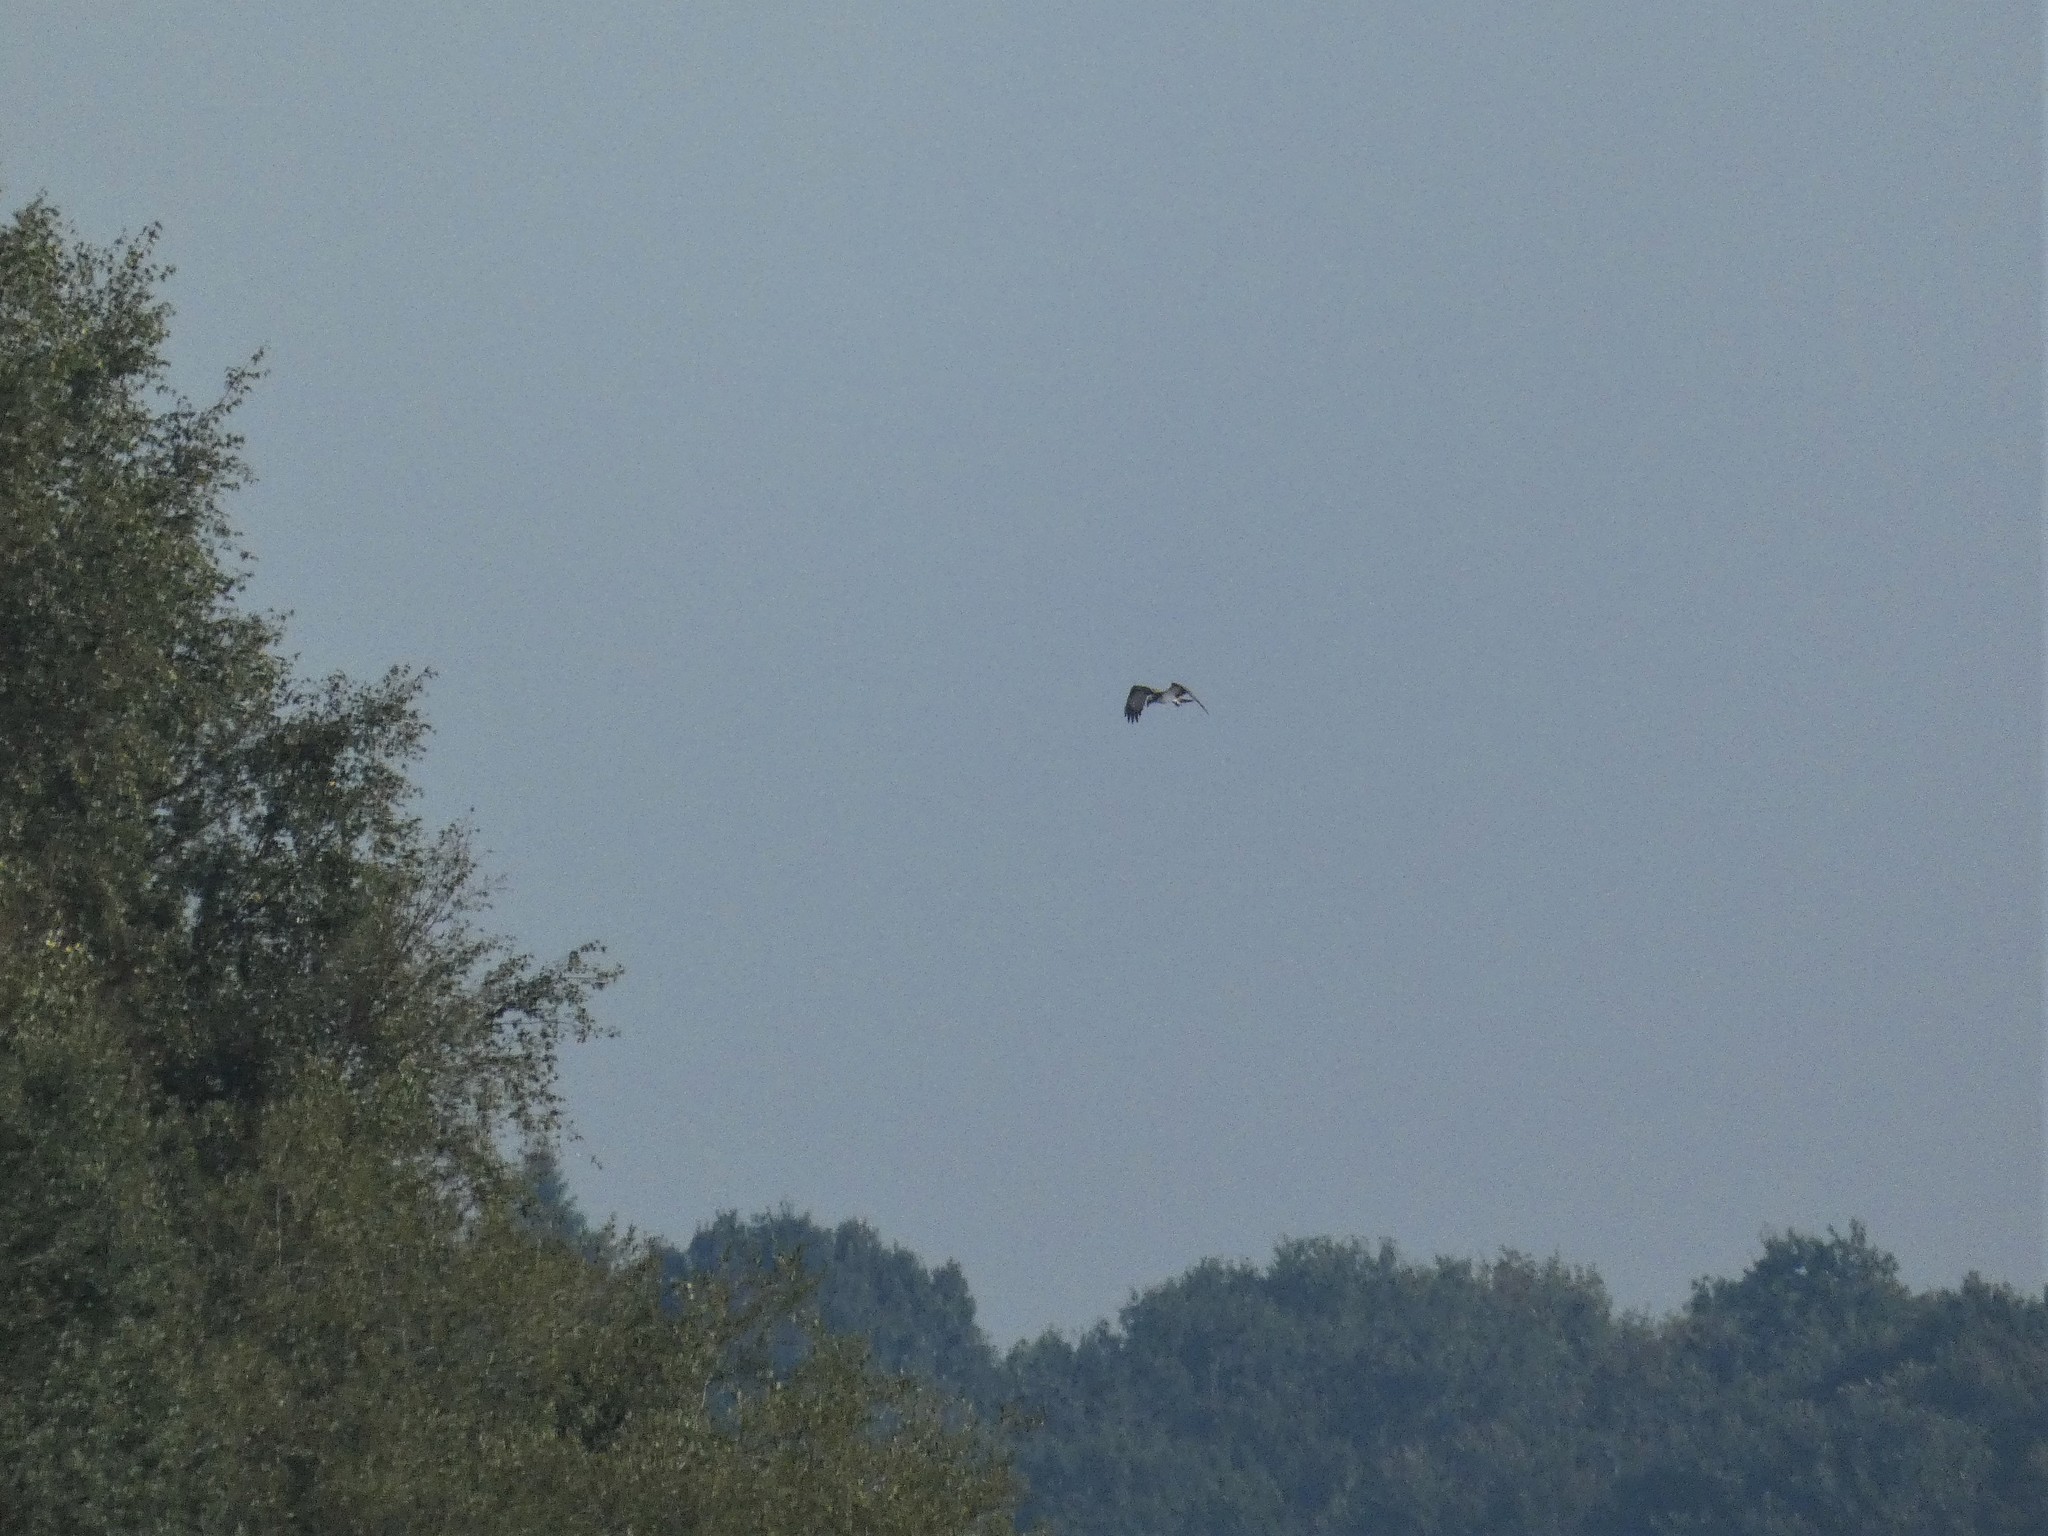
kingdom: Animalia
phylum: Chordata
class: Aves
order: Accipitriformes
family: Pandionidae
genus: Pandion
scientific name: Pandion haliaetus
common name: Osprey
